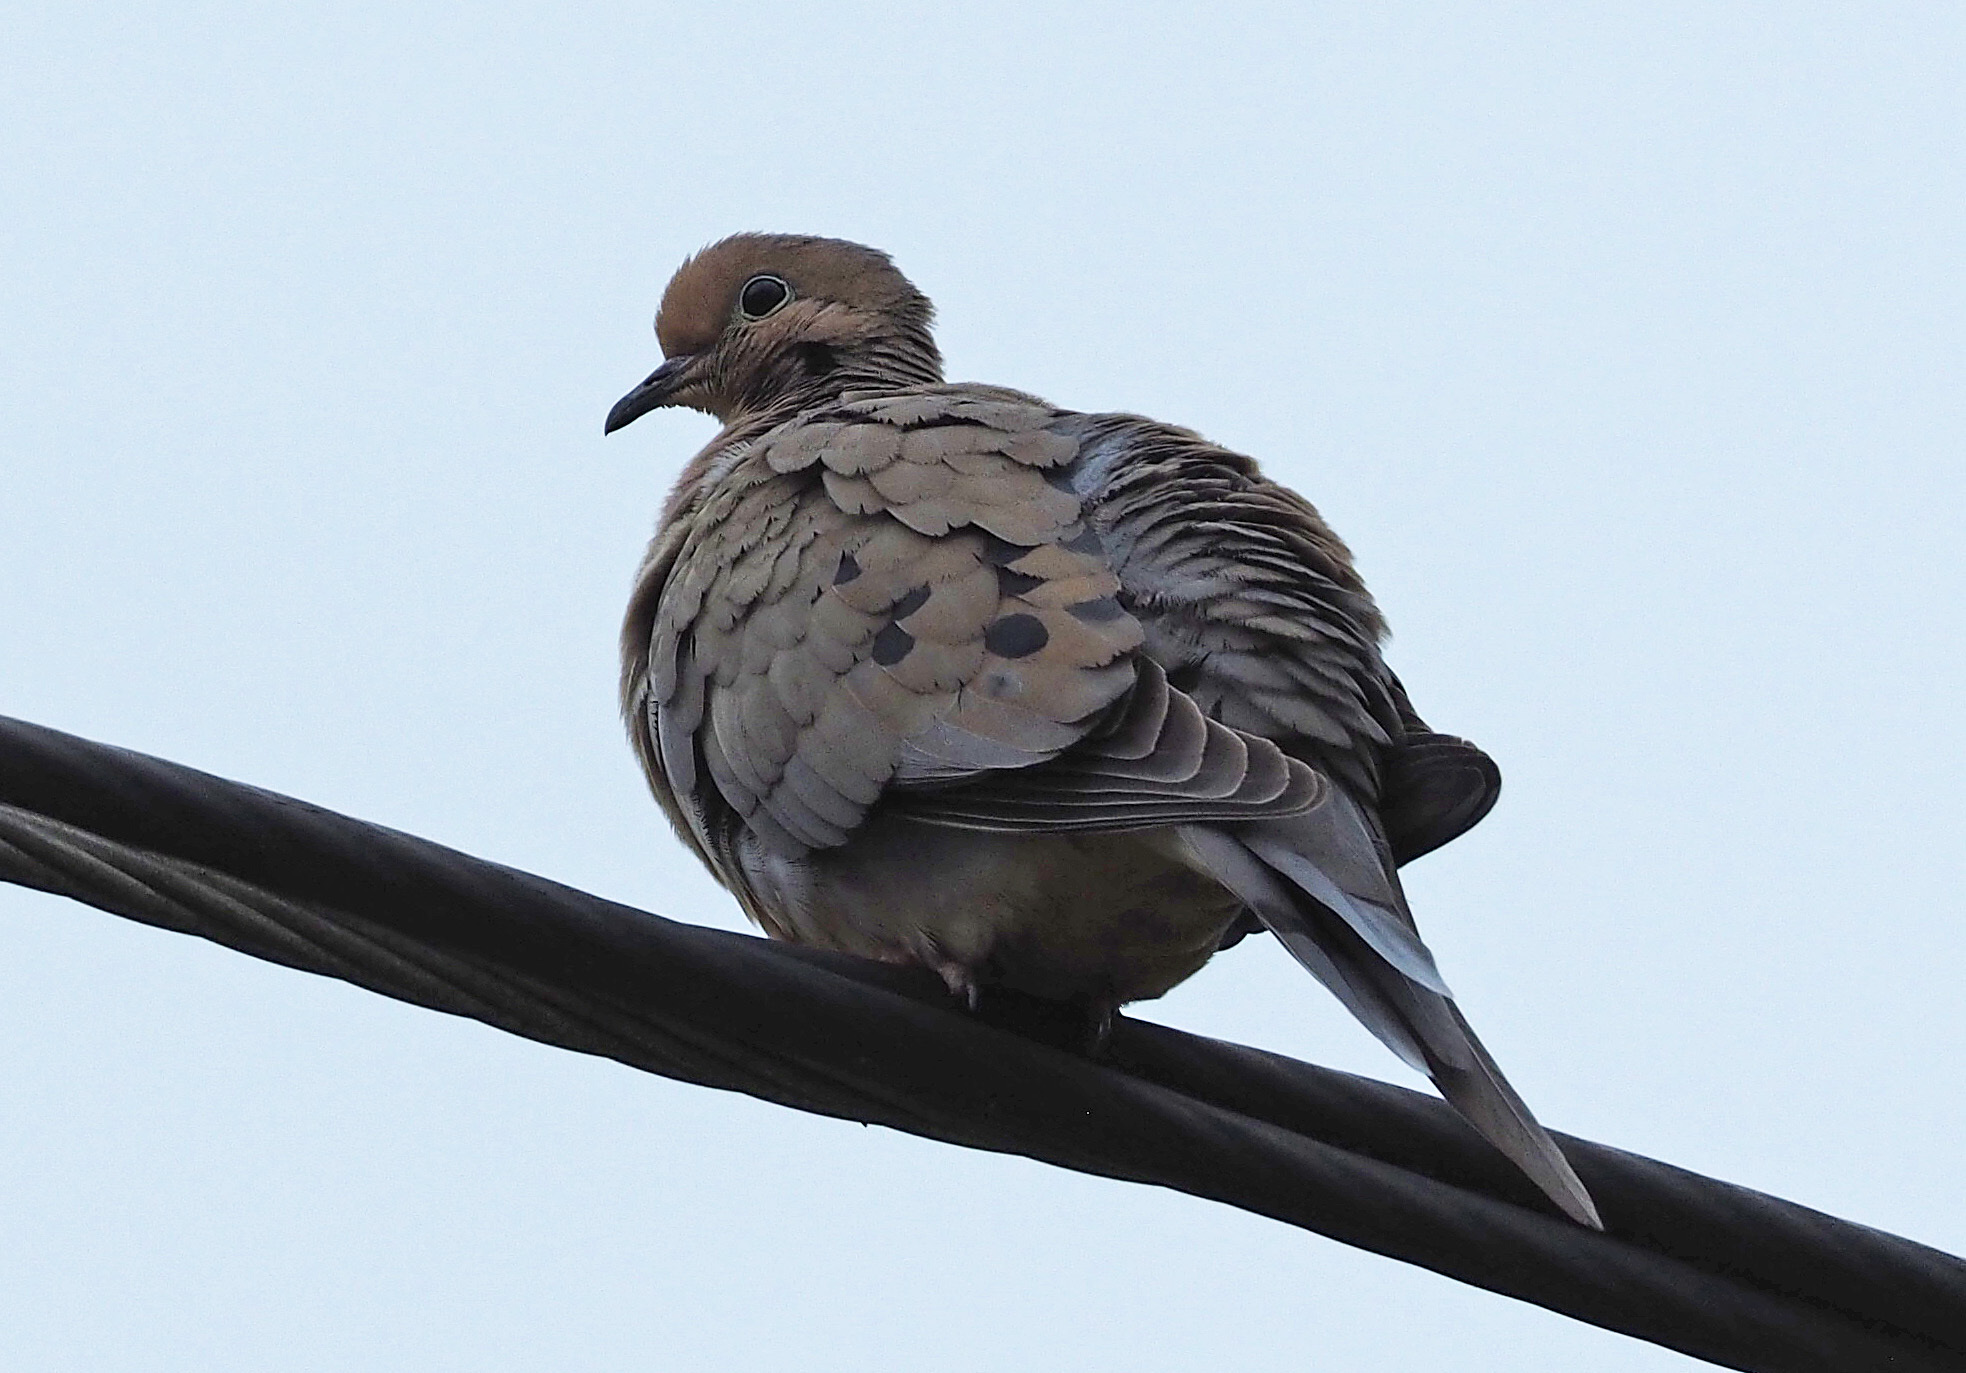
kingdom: Animalia
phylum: Chordata
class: Aves
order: Columbiformes
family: Columbidae
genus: Zenaida
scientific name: Zenaida macroura
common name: Mourning dove
